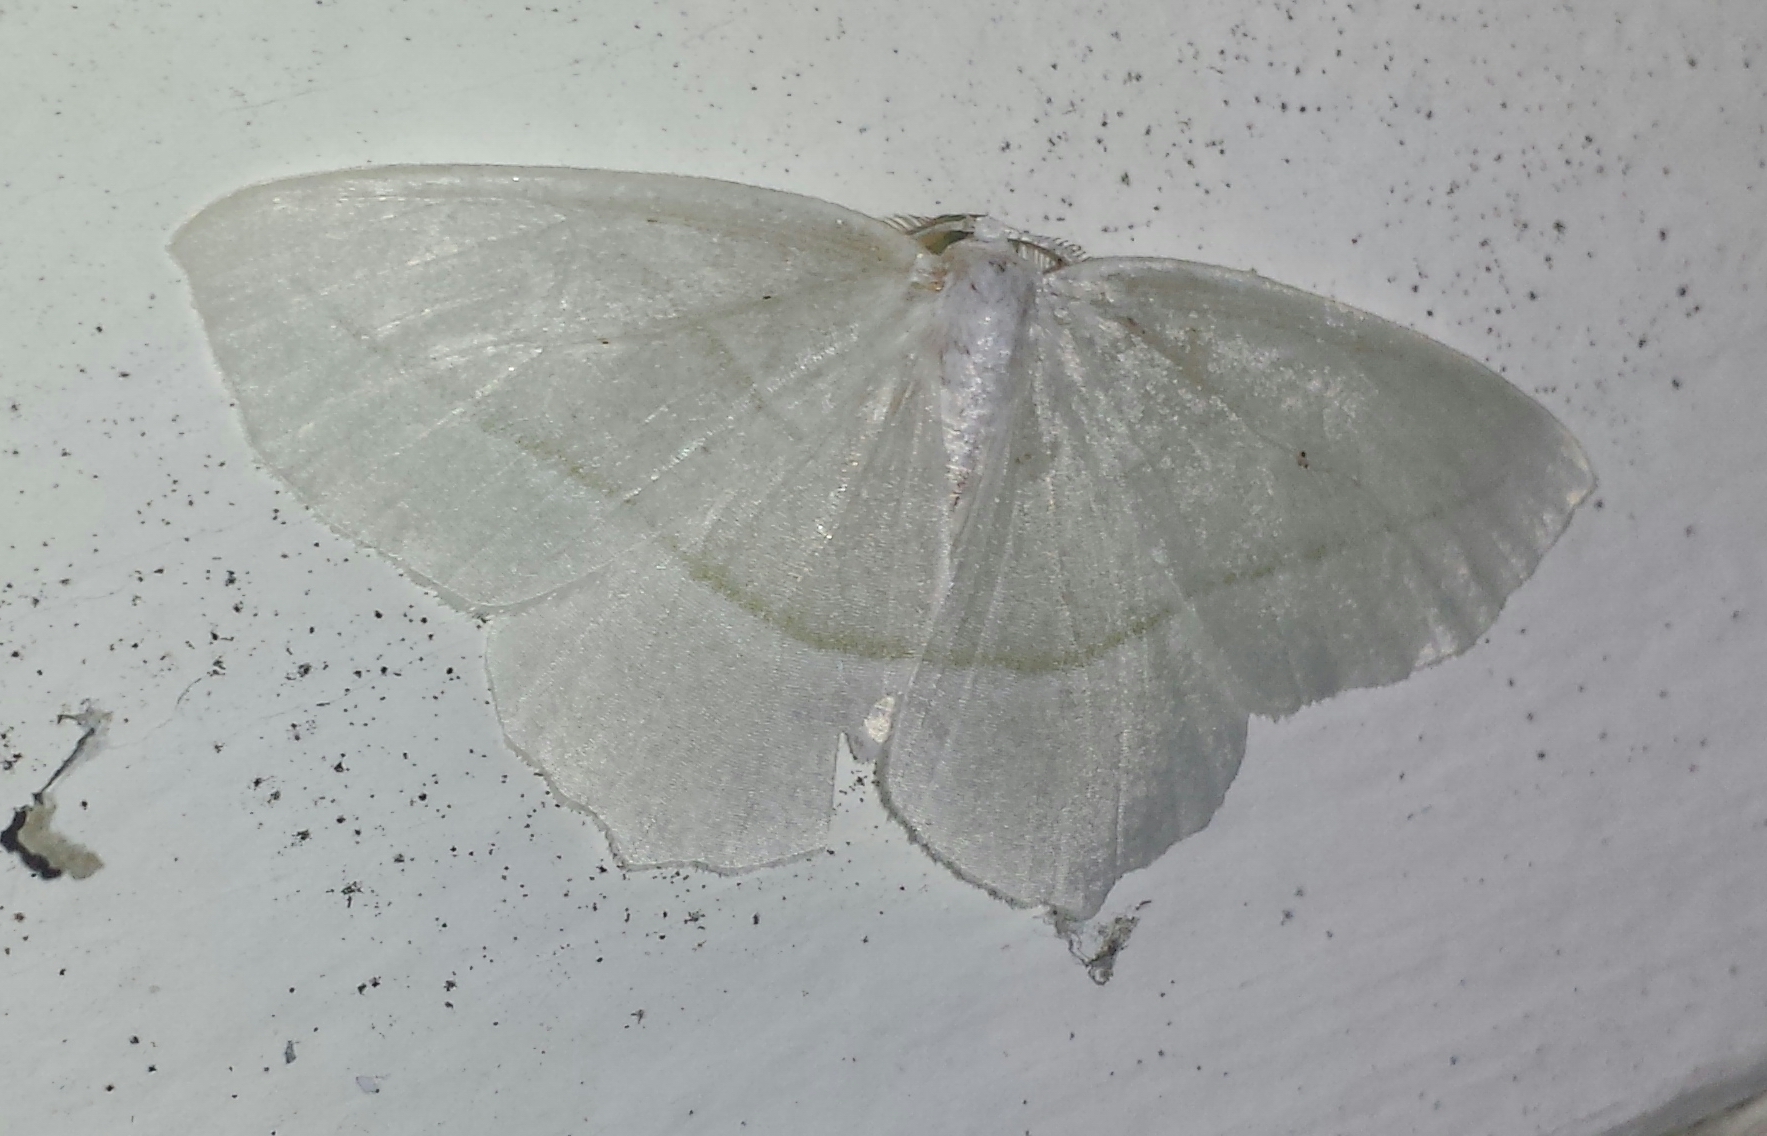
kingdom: Animalia
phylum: Arthropoda
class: Insecta
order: Lepidoptera
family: Geometridae
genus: Campaea
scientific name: Campaea perlata
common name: Fringed looper
